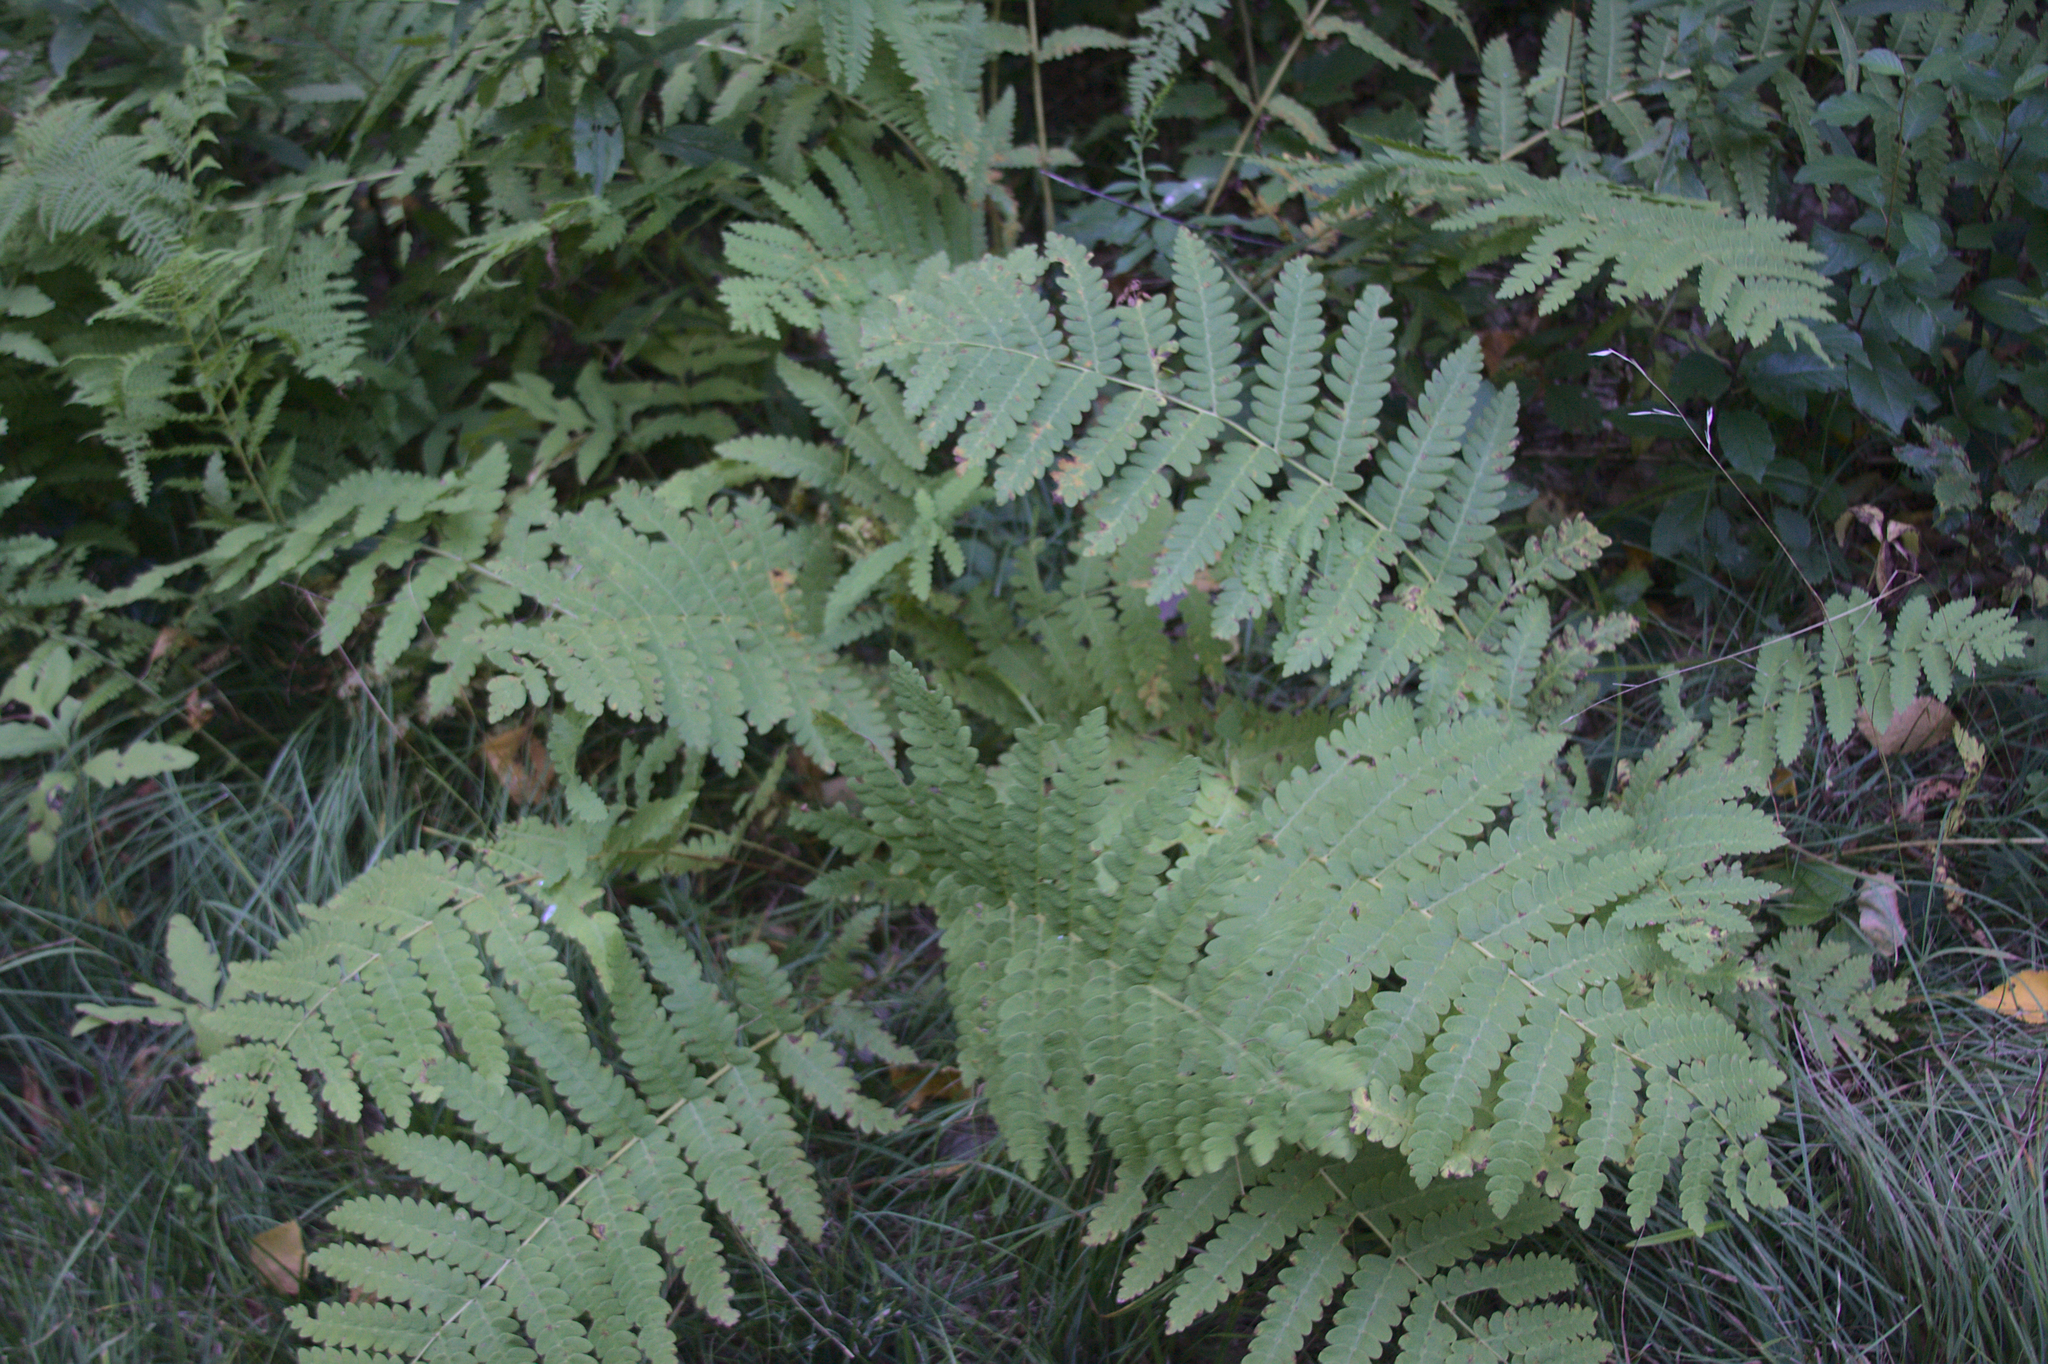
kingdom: Plantae
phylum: Tracheophyta
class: Polypodiopsida
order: Osmundales
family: Osmundaceae
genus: Claytosmunda
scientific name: Claytosmunda claytoniana
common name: Clayton's fern
